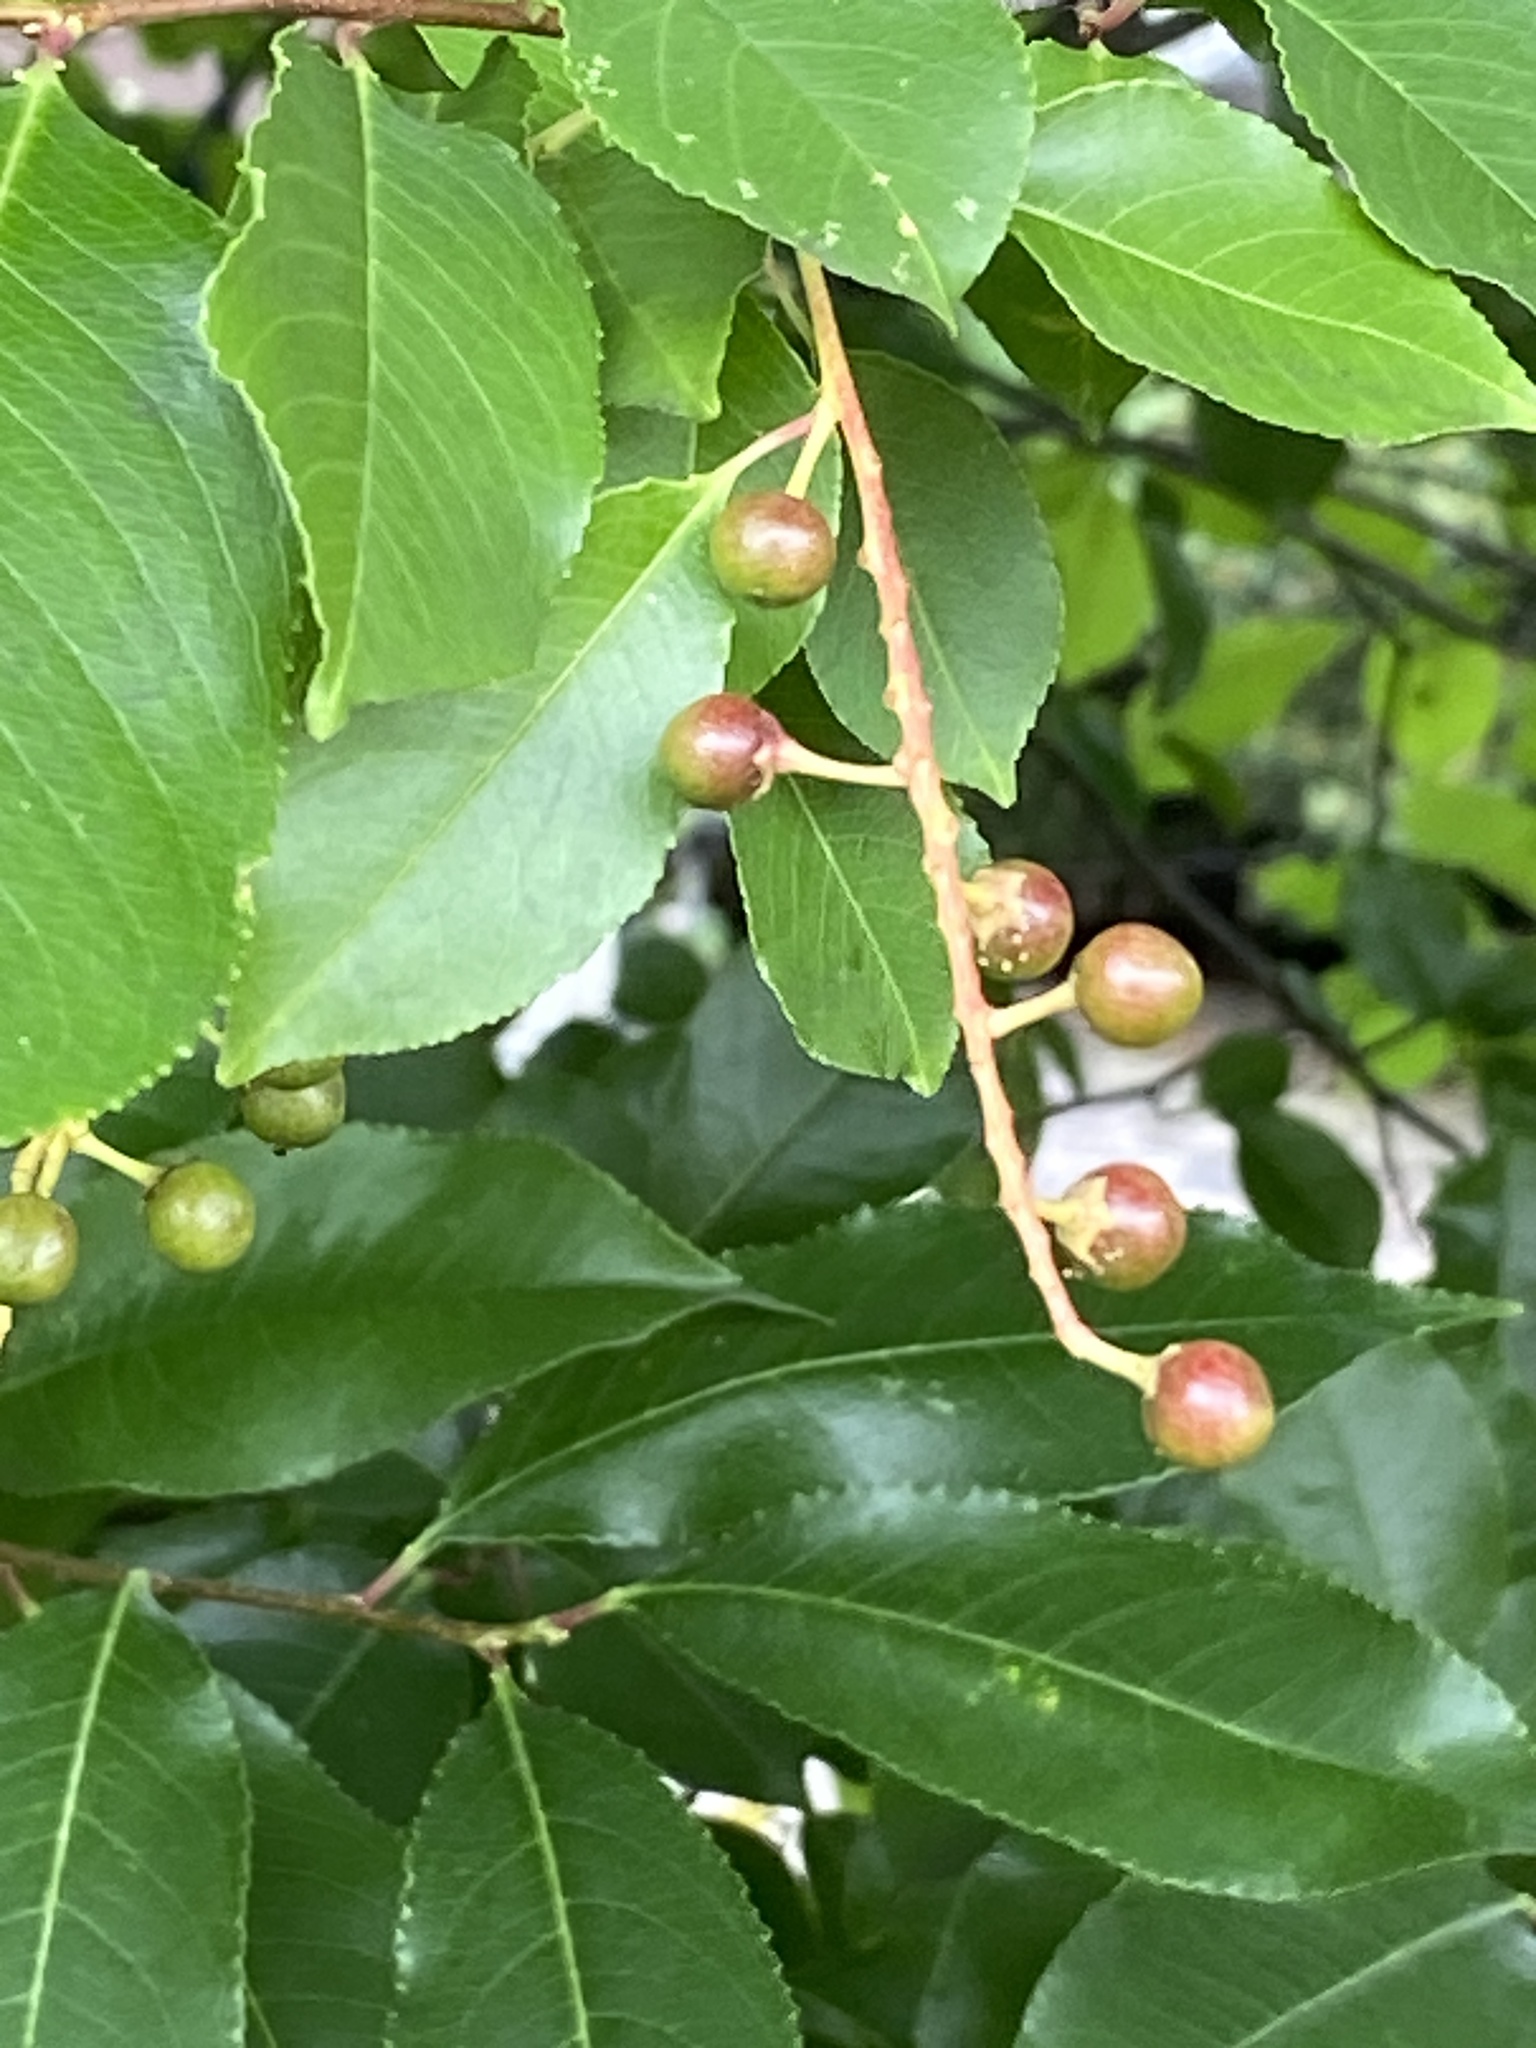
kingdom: Plantae
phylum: Tracheophyta
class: Magnoliopsida
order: Rosales
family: Rosaceae
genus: Prunus
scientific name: Prunus serotina
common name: Black cherry
